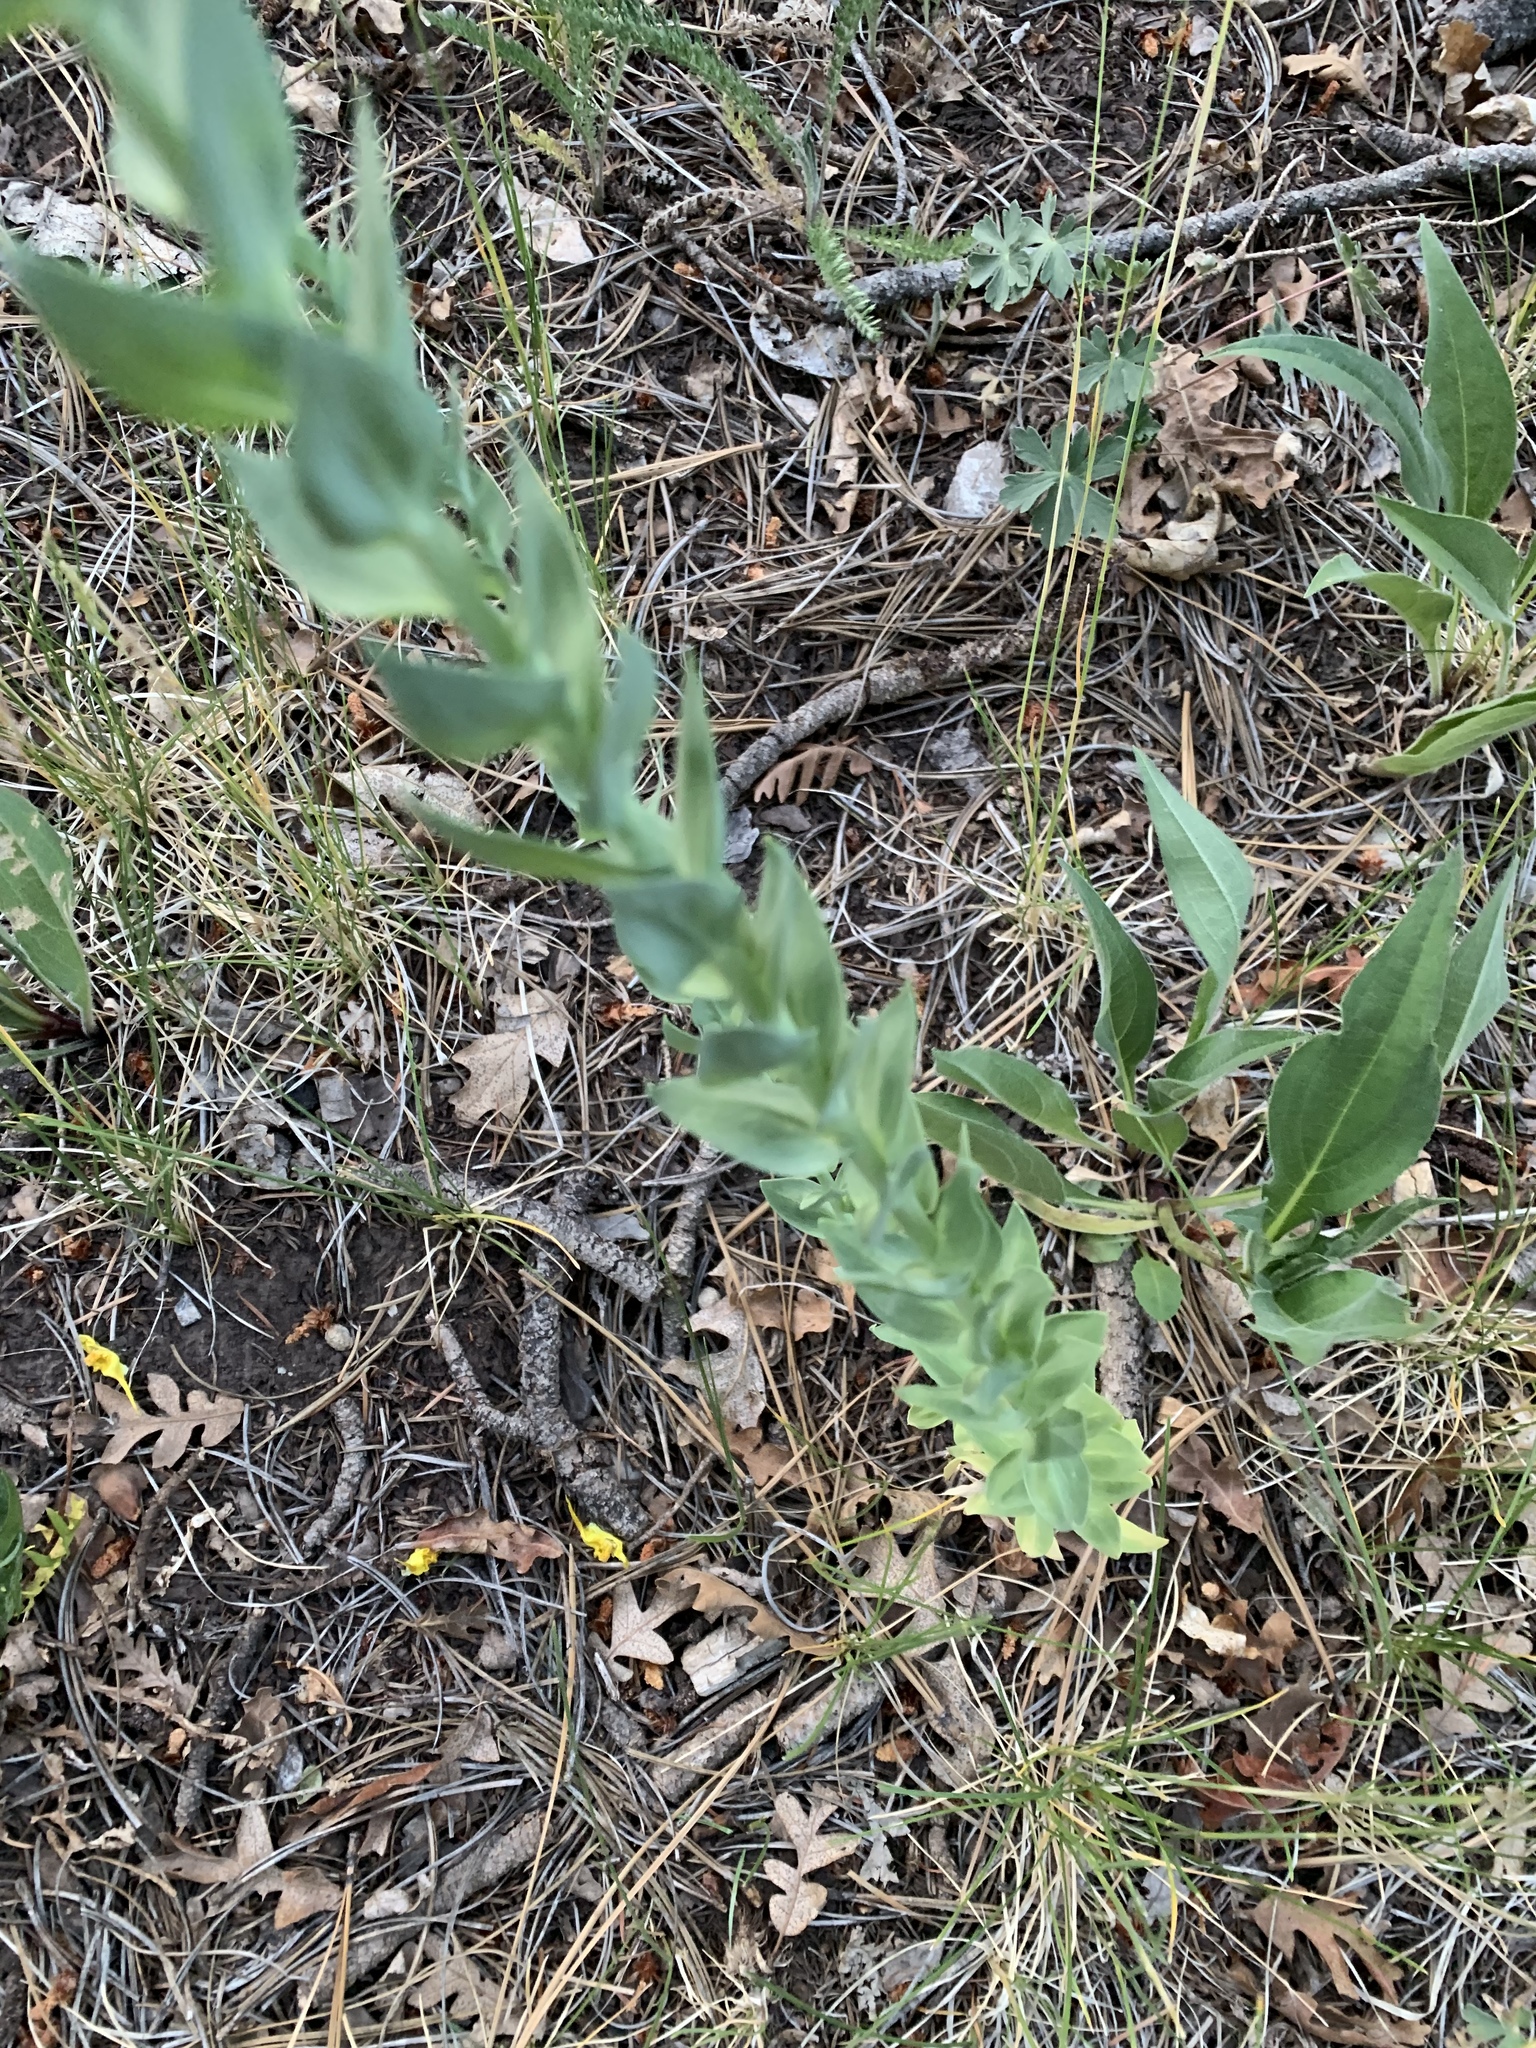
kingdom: Plantae
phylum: Tracheophyta
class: Magnoliopsida
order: Lamiales
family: Plantaginaceae
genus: Linaria
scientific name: Linaria dalmatica
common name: Dalmatian toadflax
